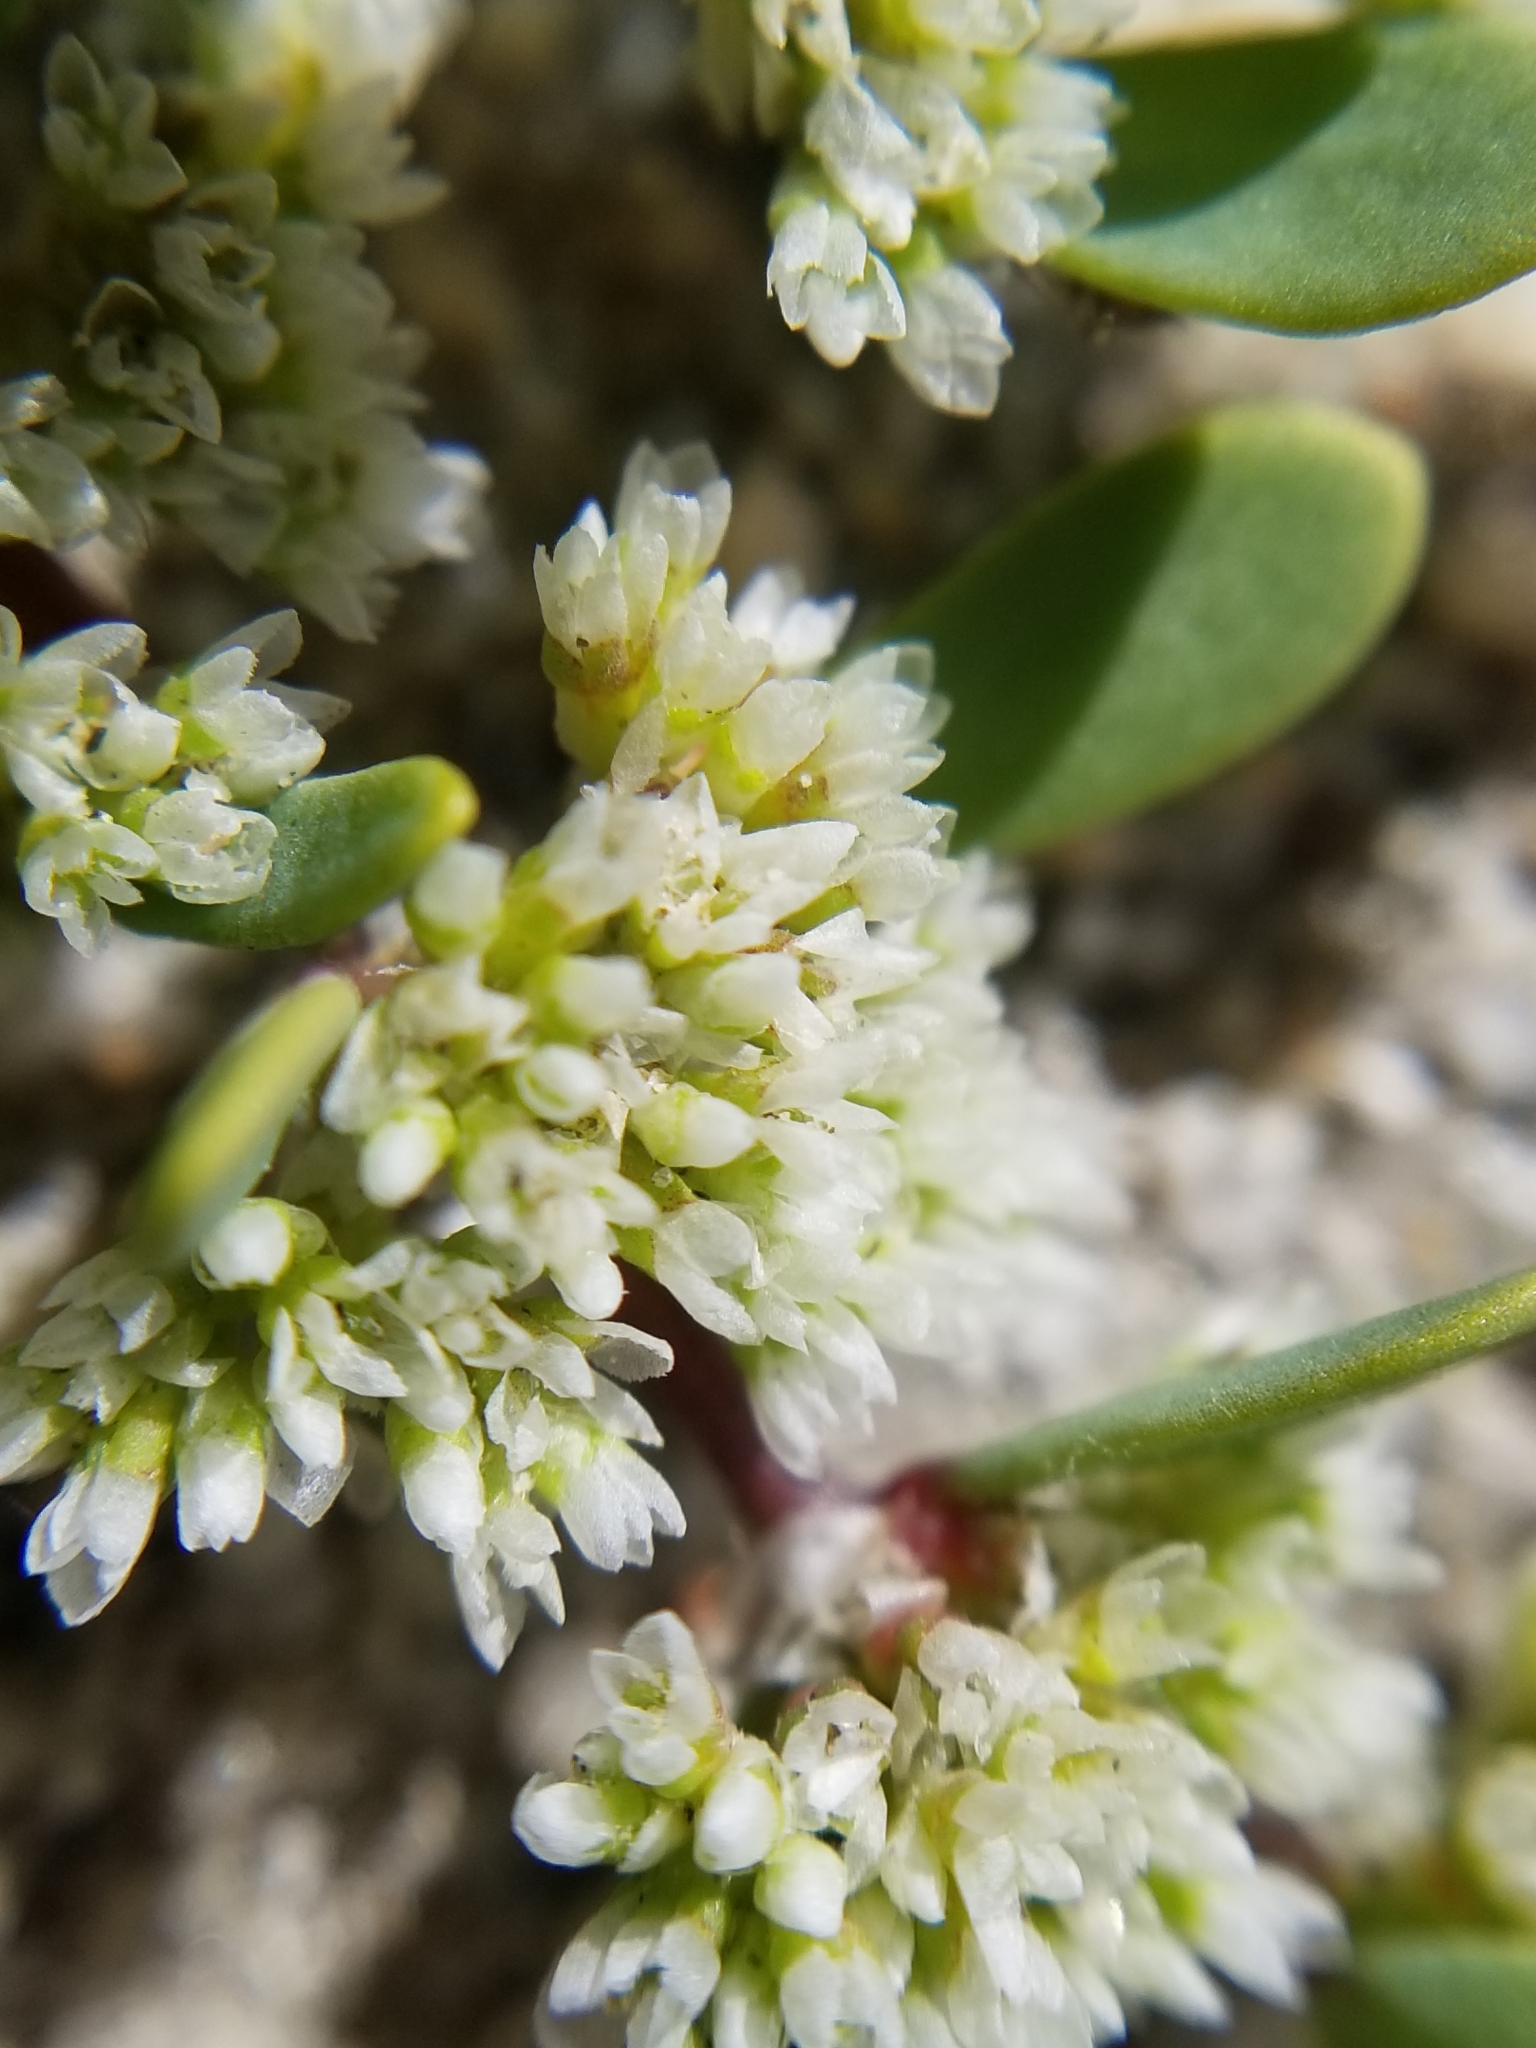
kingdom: Plantae
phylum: Tracheophyta
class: Magnoliopsida
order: Caryophyllales
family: Caryophyllaceae
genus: Achyronychia
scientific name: Achyronychia cooperi
